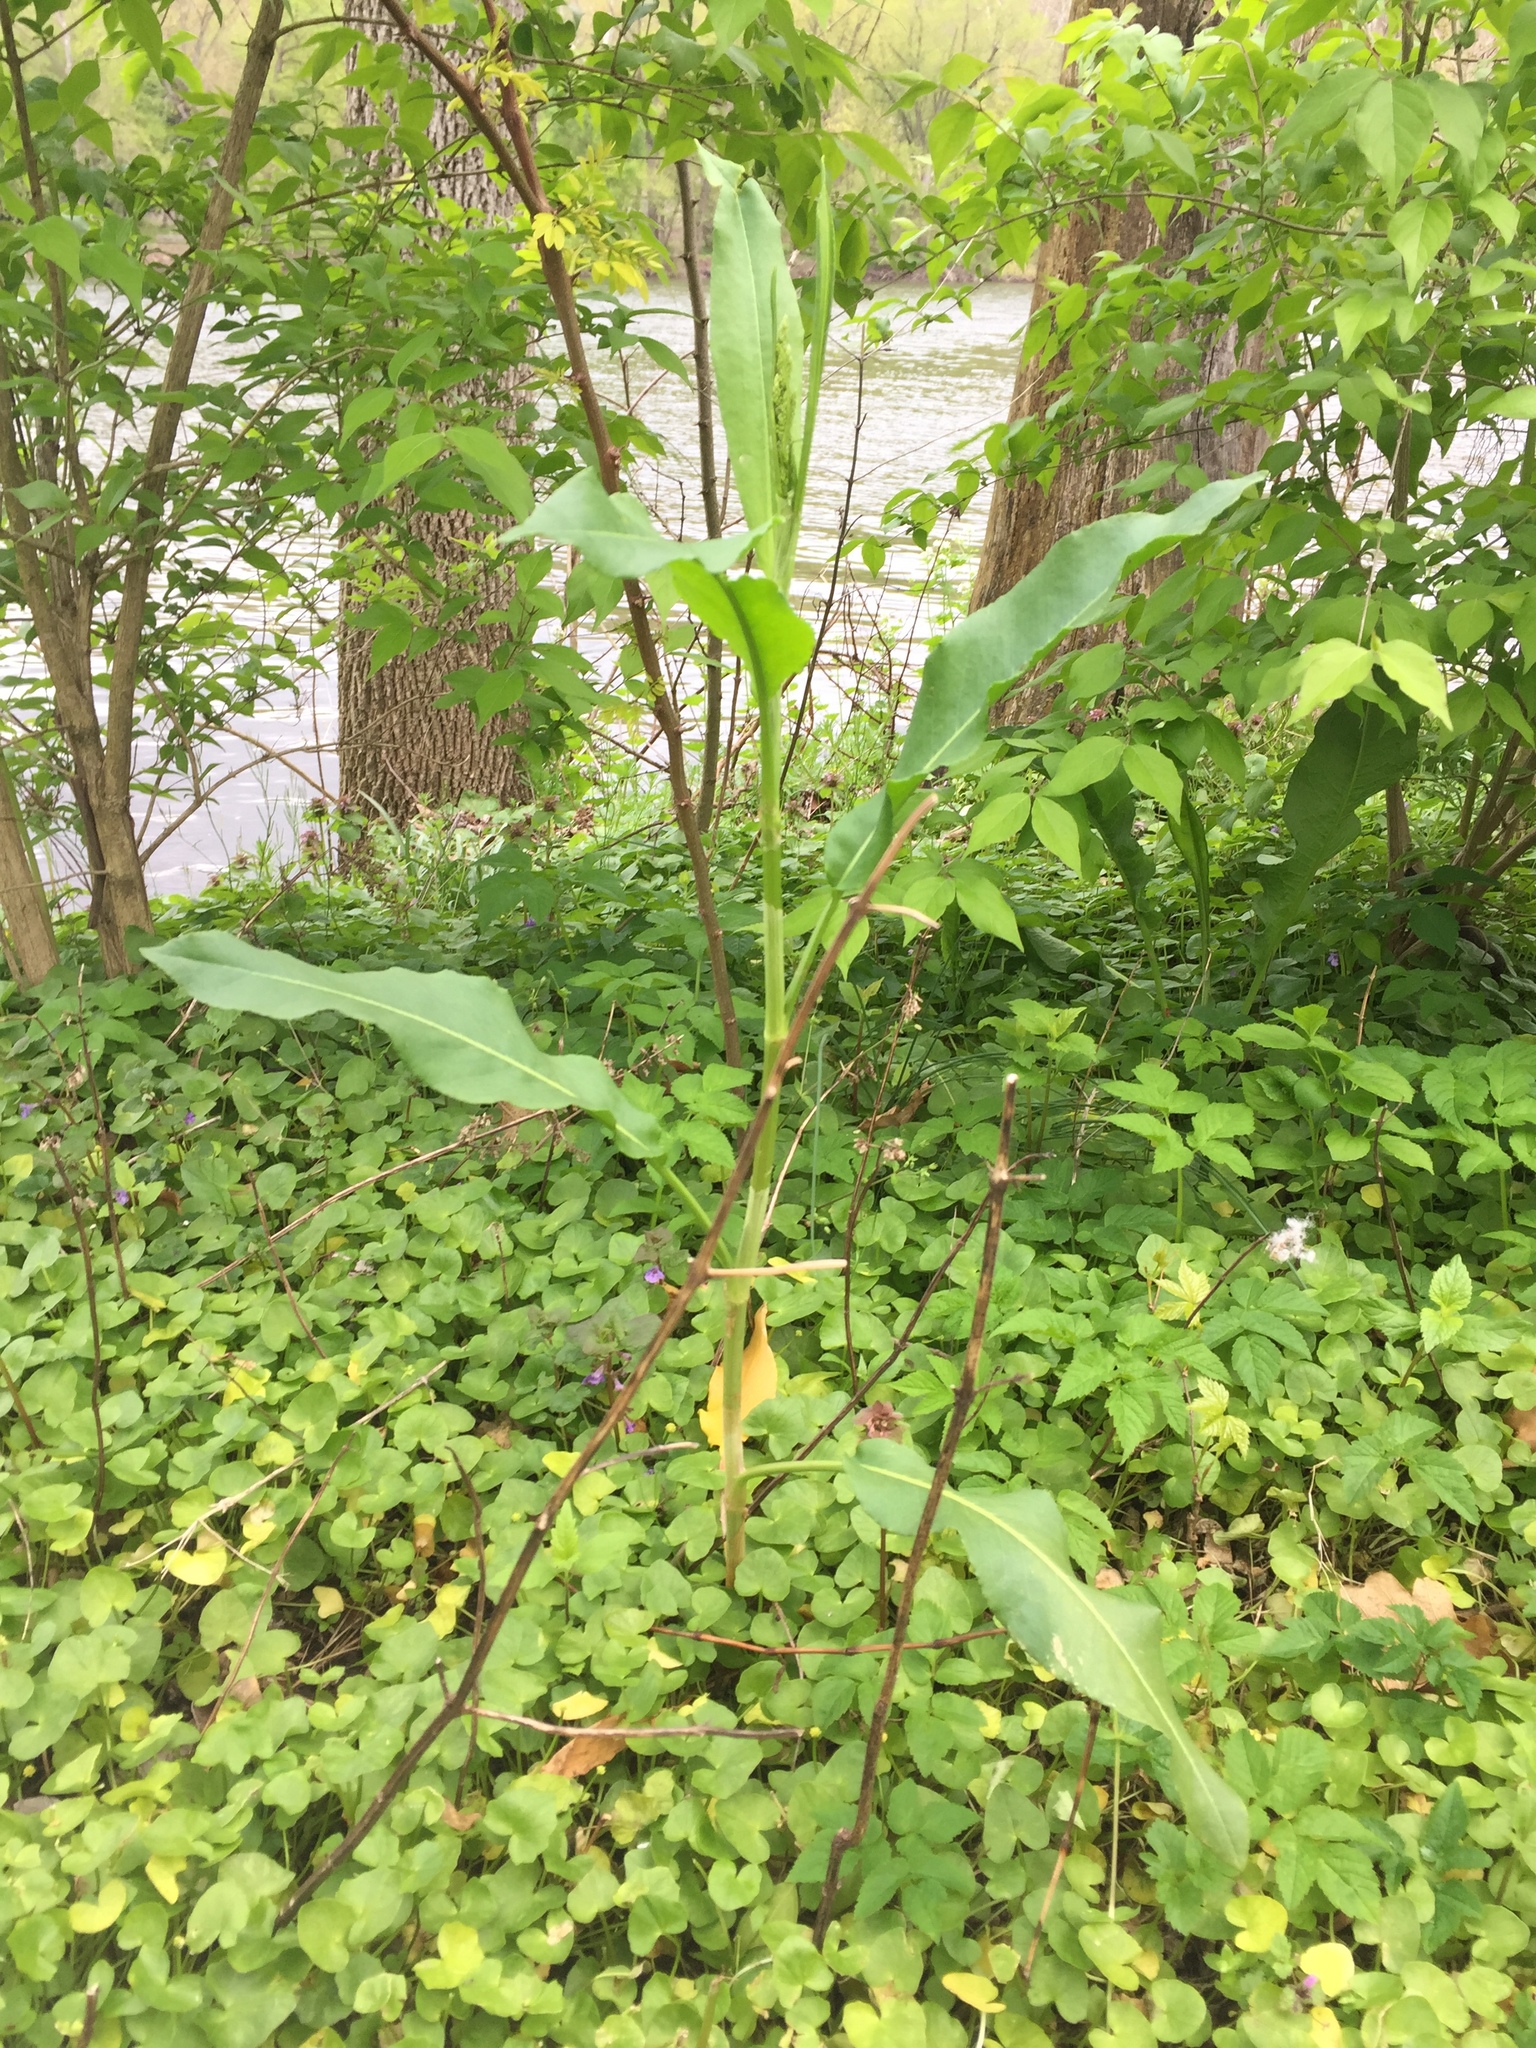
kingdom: Plantae
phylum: Tracheophyta
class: Magnoliopsida
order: Caryophyllales
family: Polygonaceae
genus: Rumex
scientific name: Rumex crispus
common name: Curled dock
